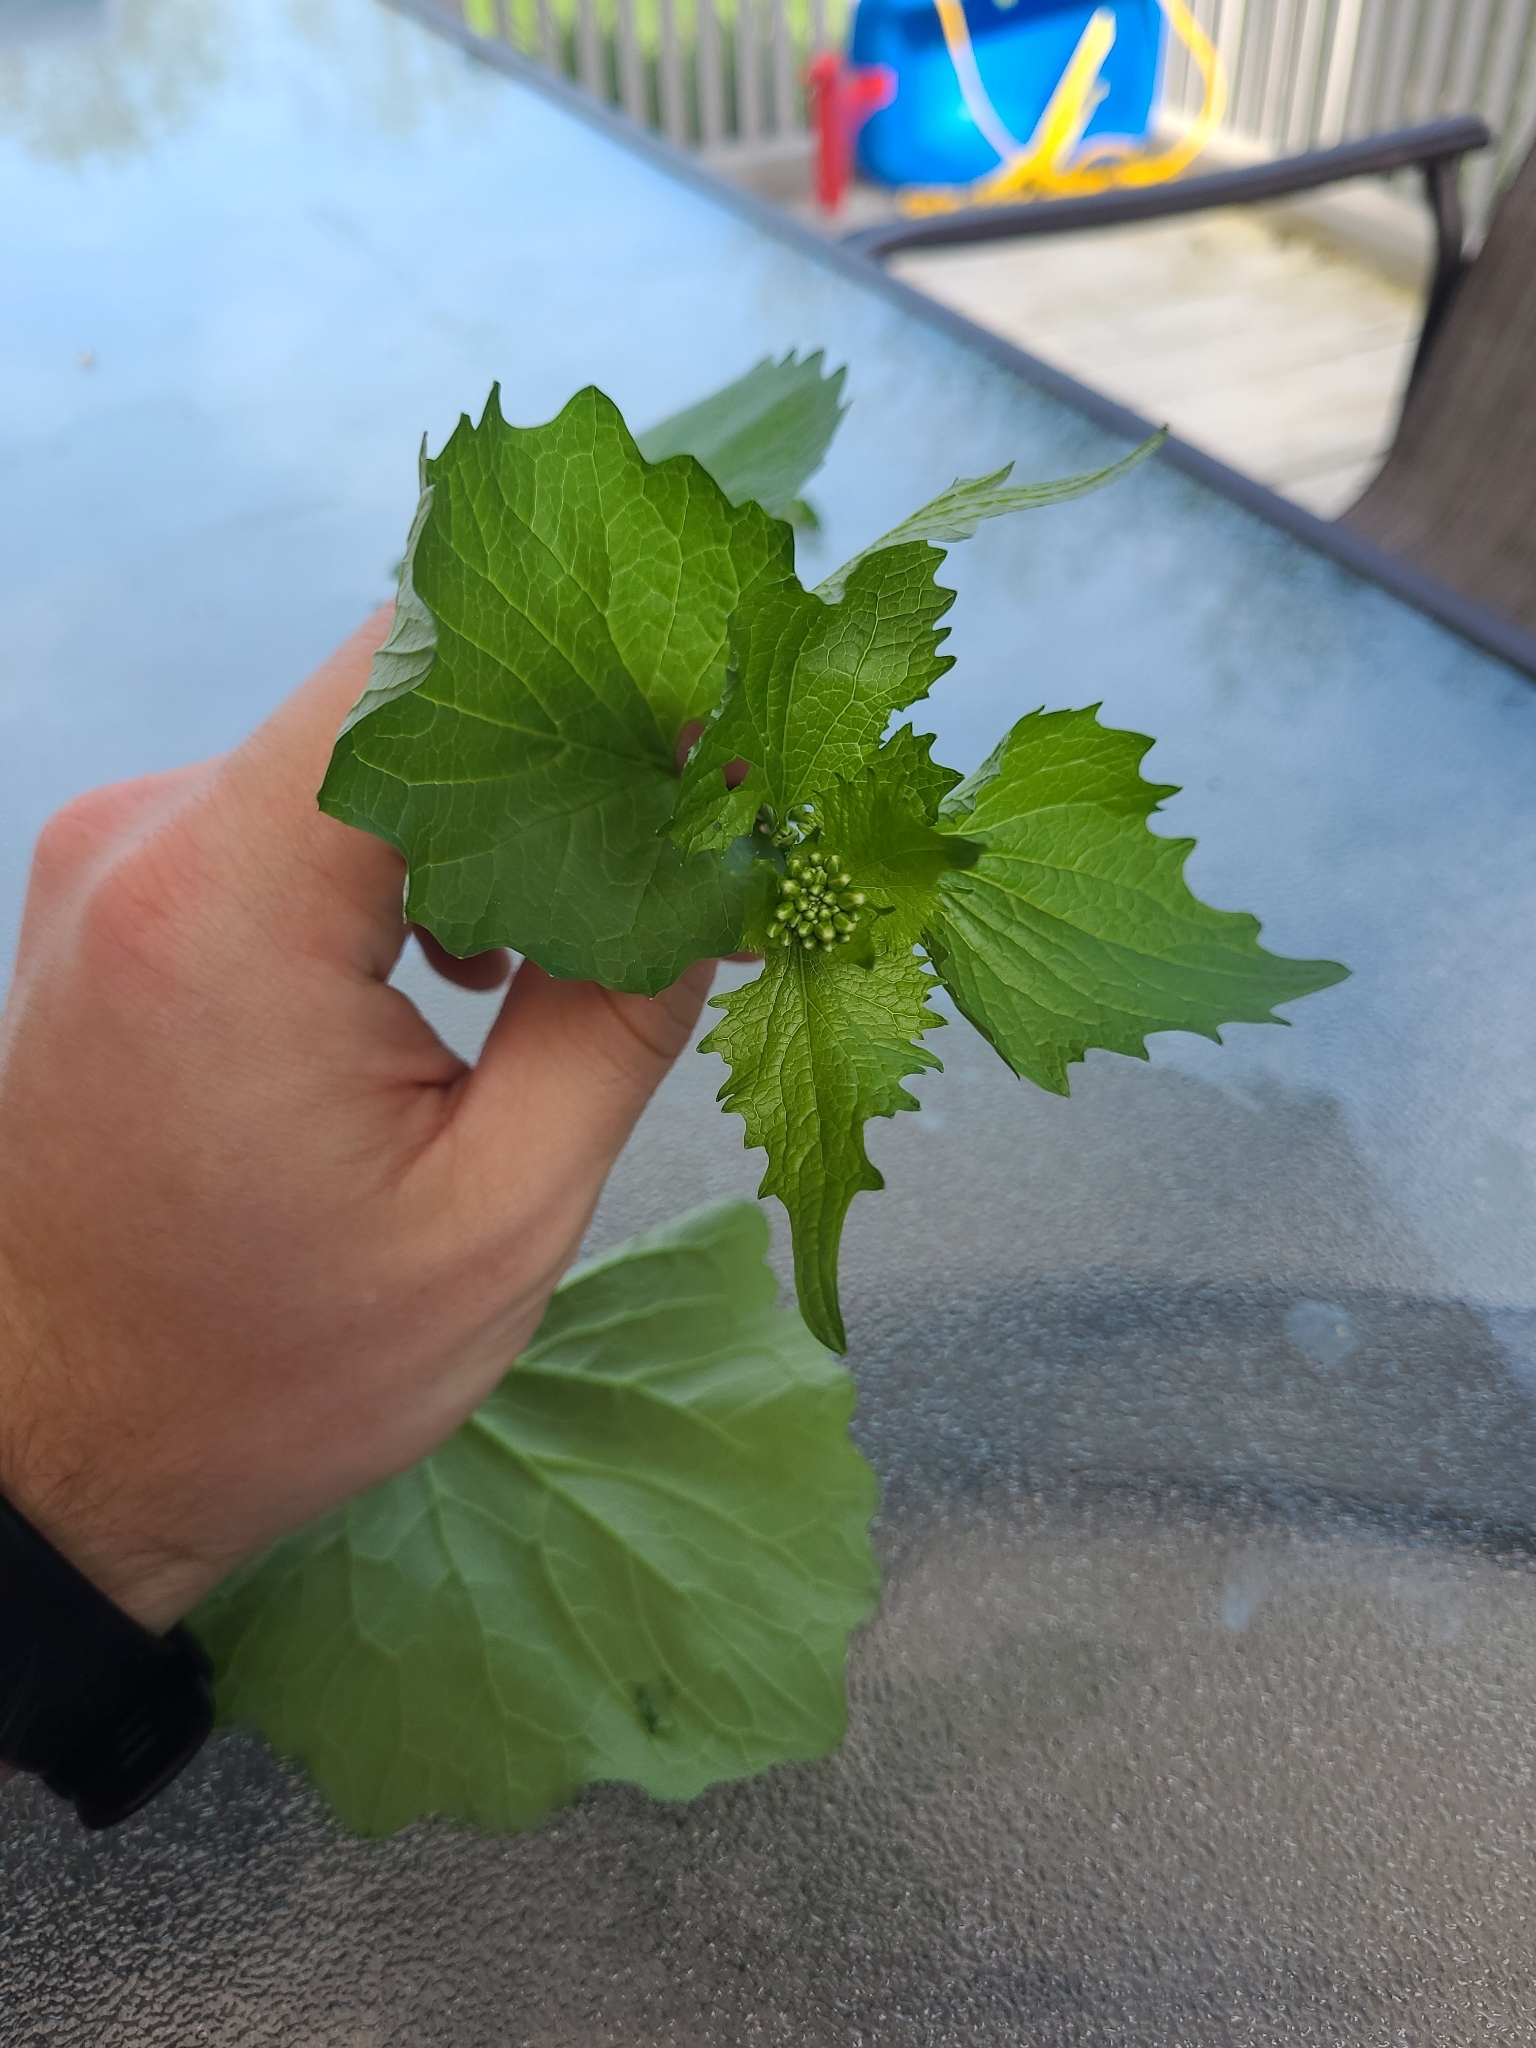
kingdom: Plantae
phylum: Tracheophyta
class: Magnoliopsida
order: Brassicales
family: Brassicaceae
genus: Alliaria
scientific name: Alliaria petiolata
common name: Garlic mustard
